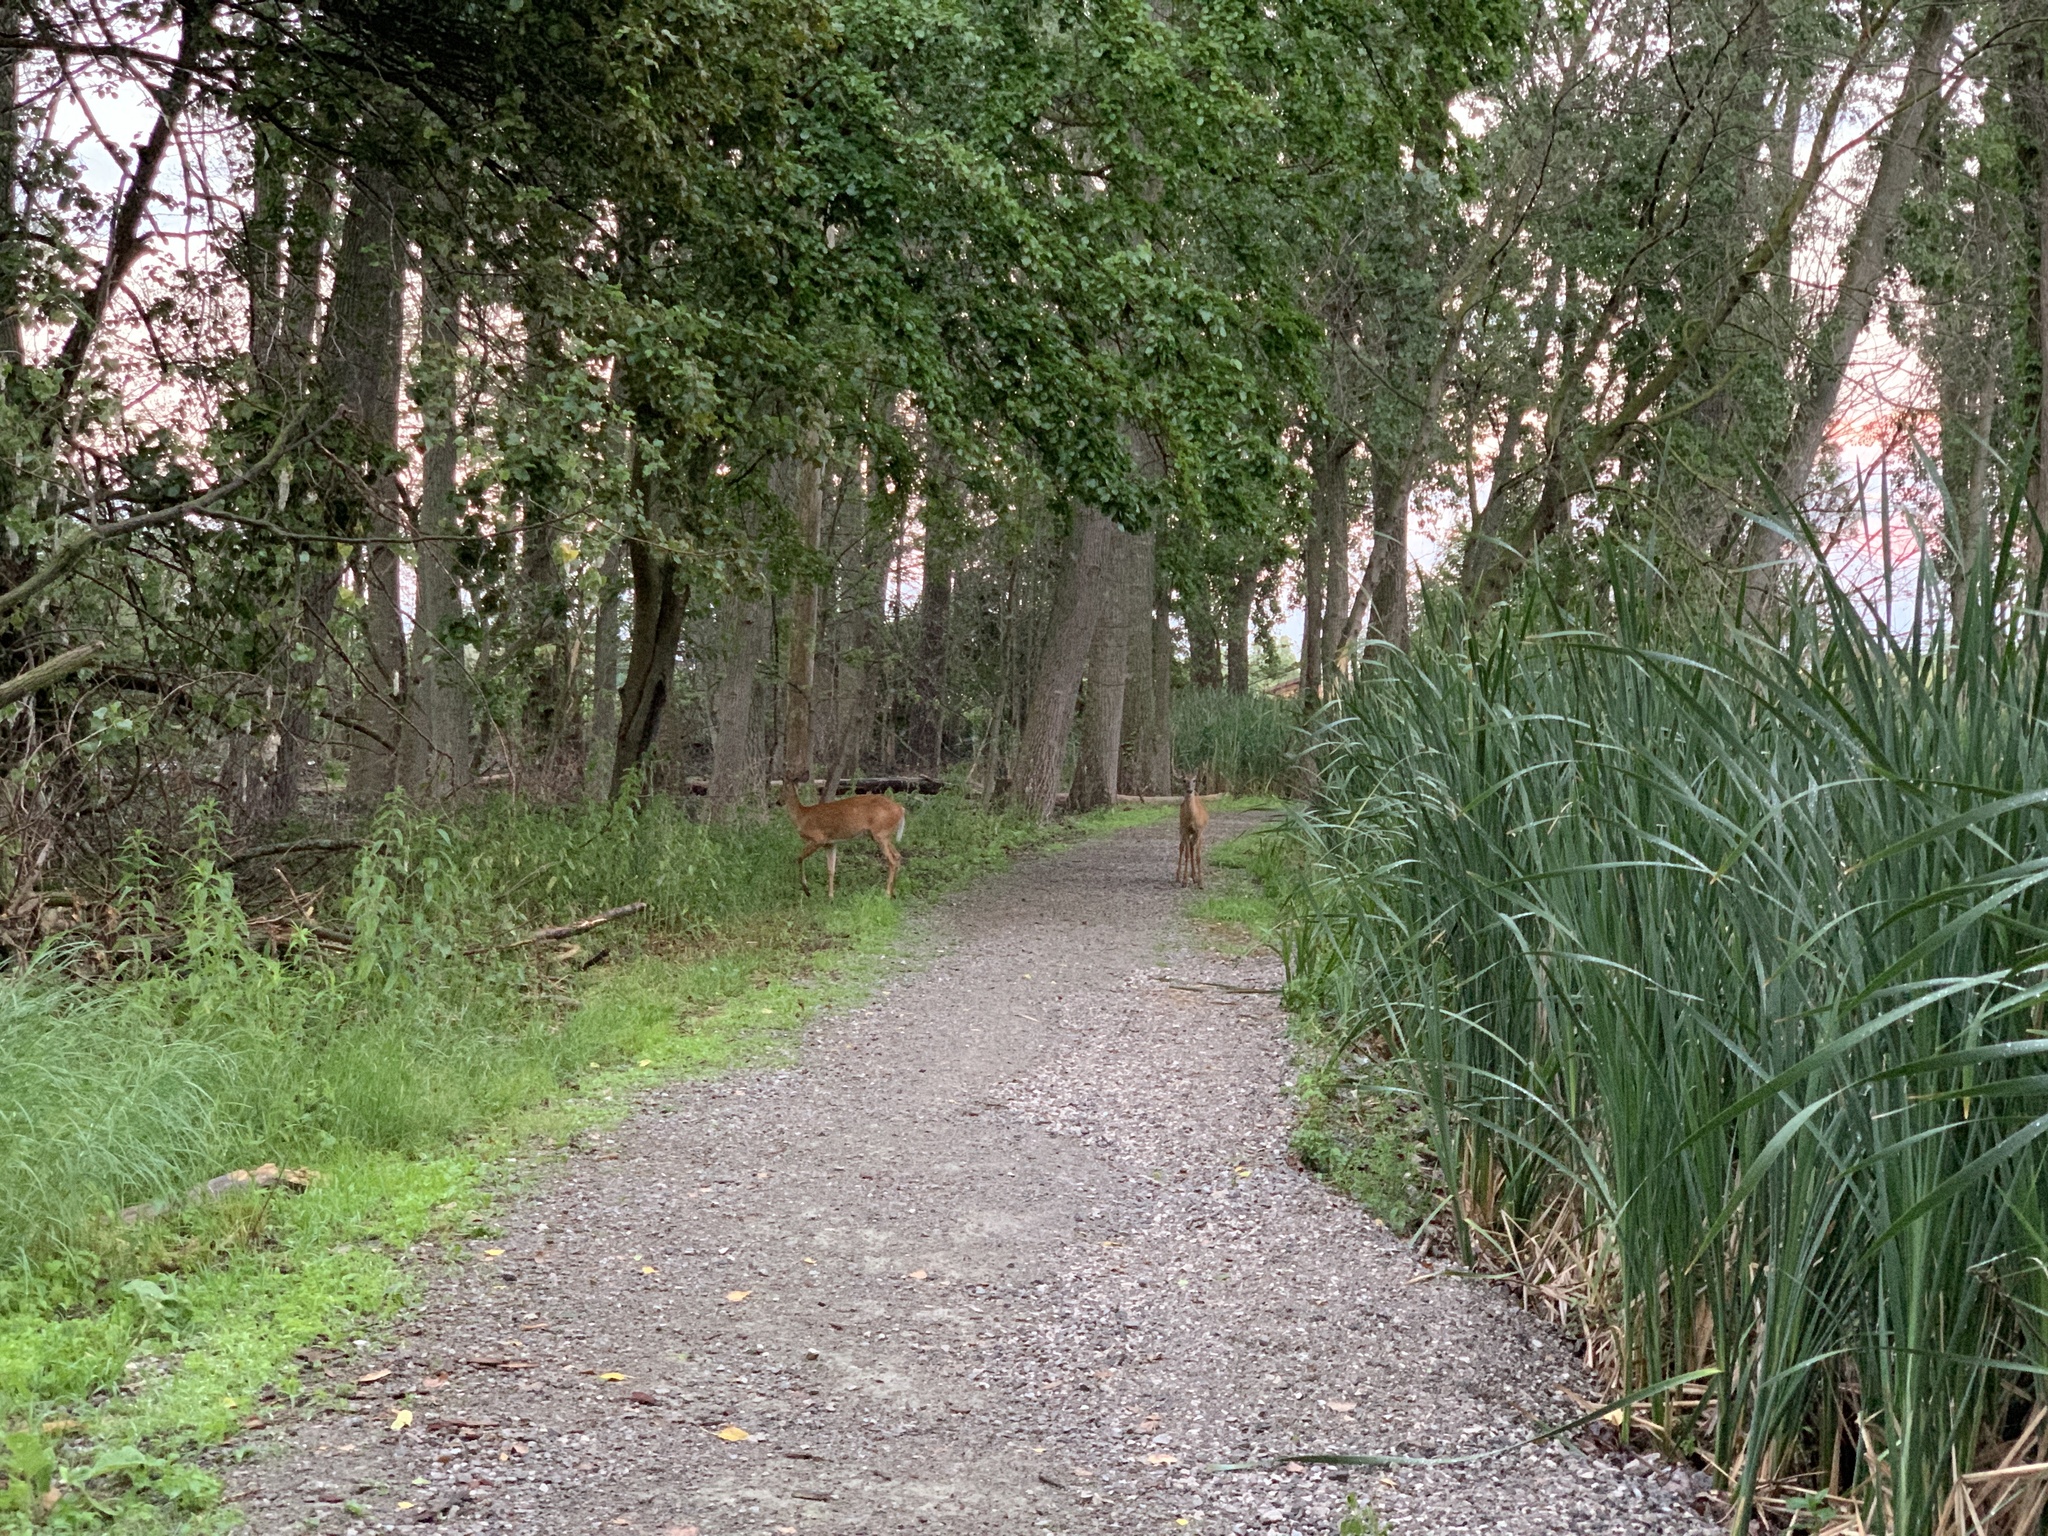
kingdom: Animalia
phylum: Chordata
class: Mammalia
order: Artiodactyla
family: Cervidae
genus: Odocoileus
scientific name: Odocoileus virginianus
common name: White-tailed deer
